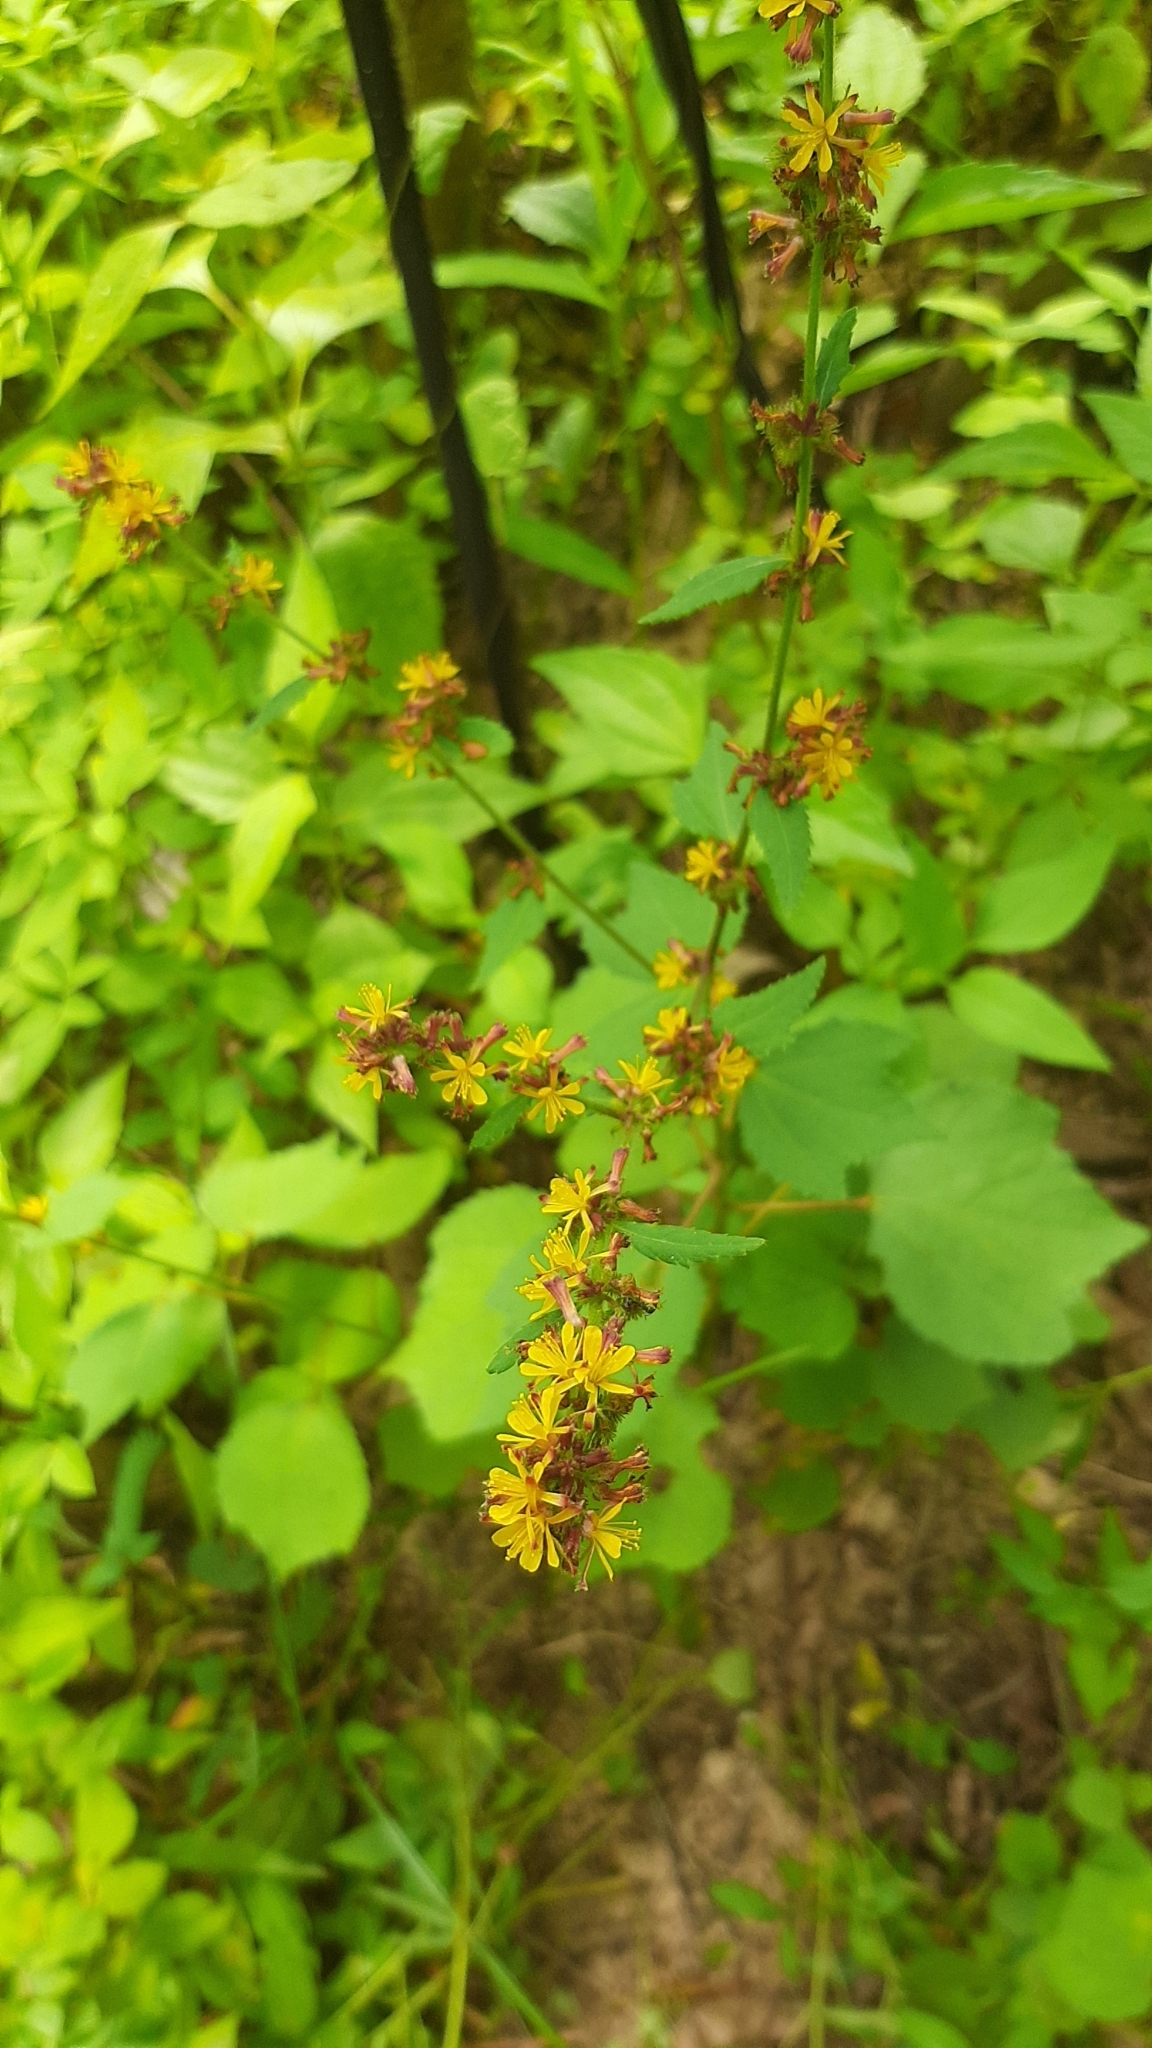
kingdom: Plantae
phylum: Tracheophyta
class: Magnoliopsida
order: Malvales
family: Malvaceae
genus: Triumfetta
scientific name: Triumfetta rhomboidea
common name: Diamond burbark
